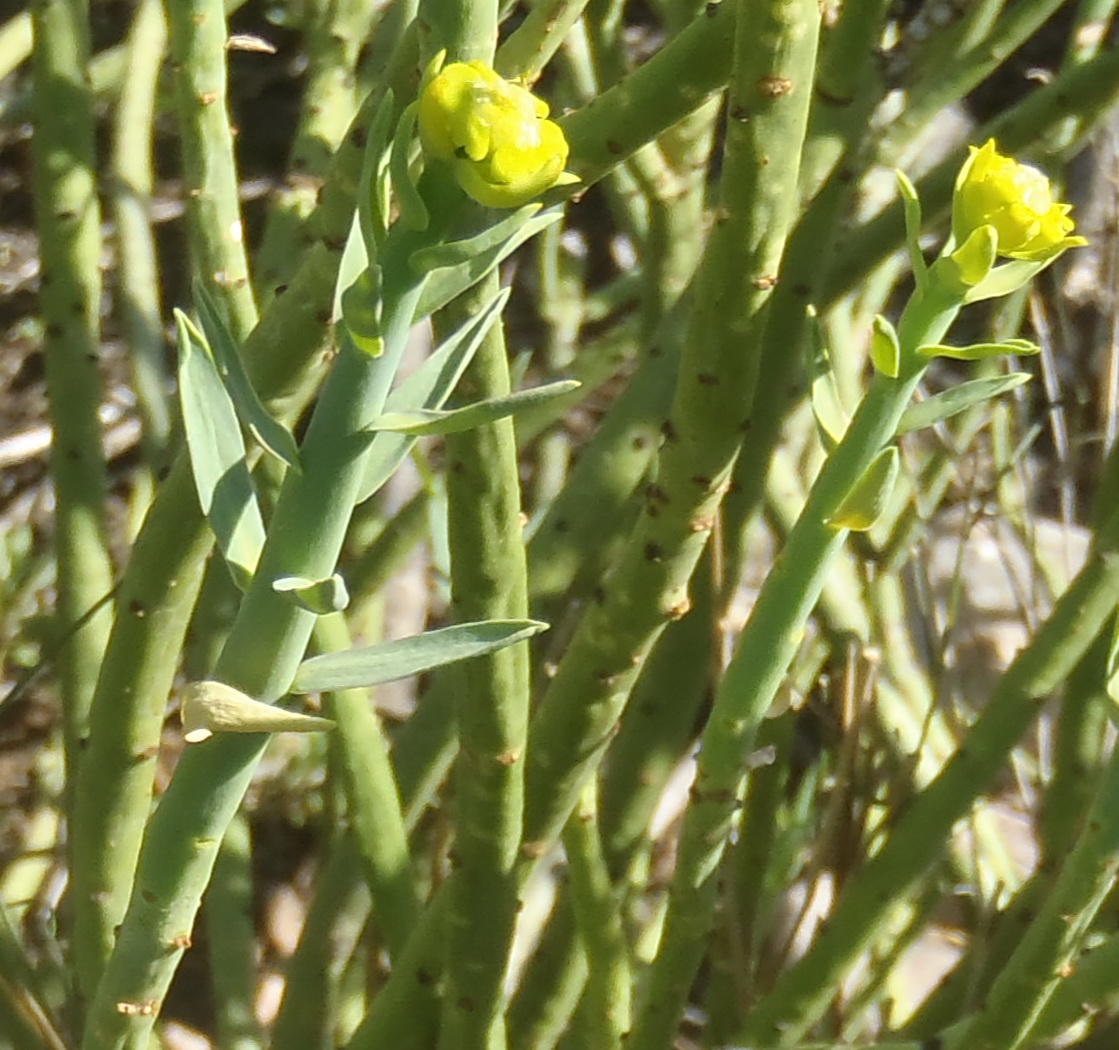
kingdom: Plantae
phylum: Tracheophyta
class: Magnoliopsida
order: Malpighiales
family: Euphorbiaceae
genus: Euphorbia
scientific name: Euphorbia mauritanica
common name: Jackal's-food
